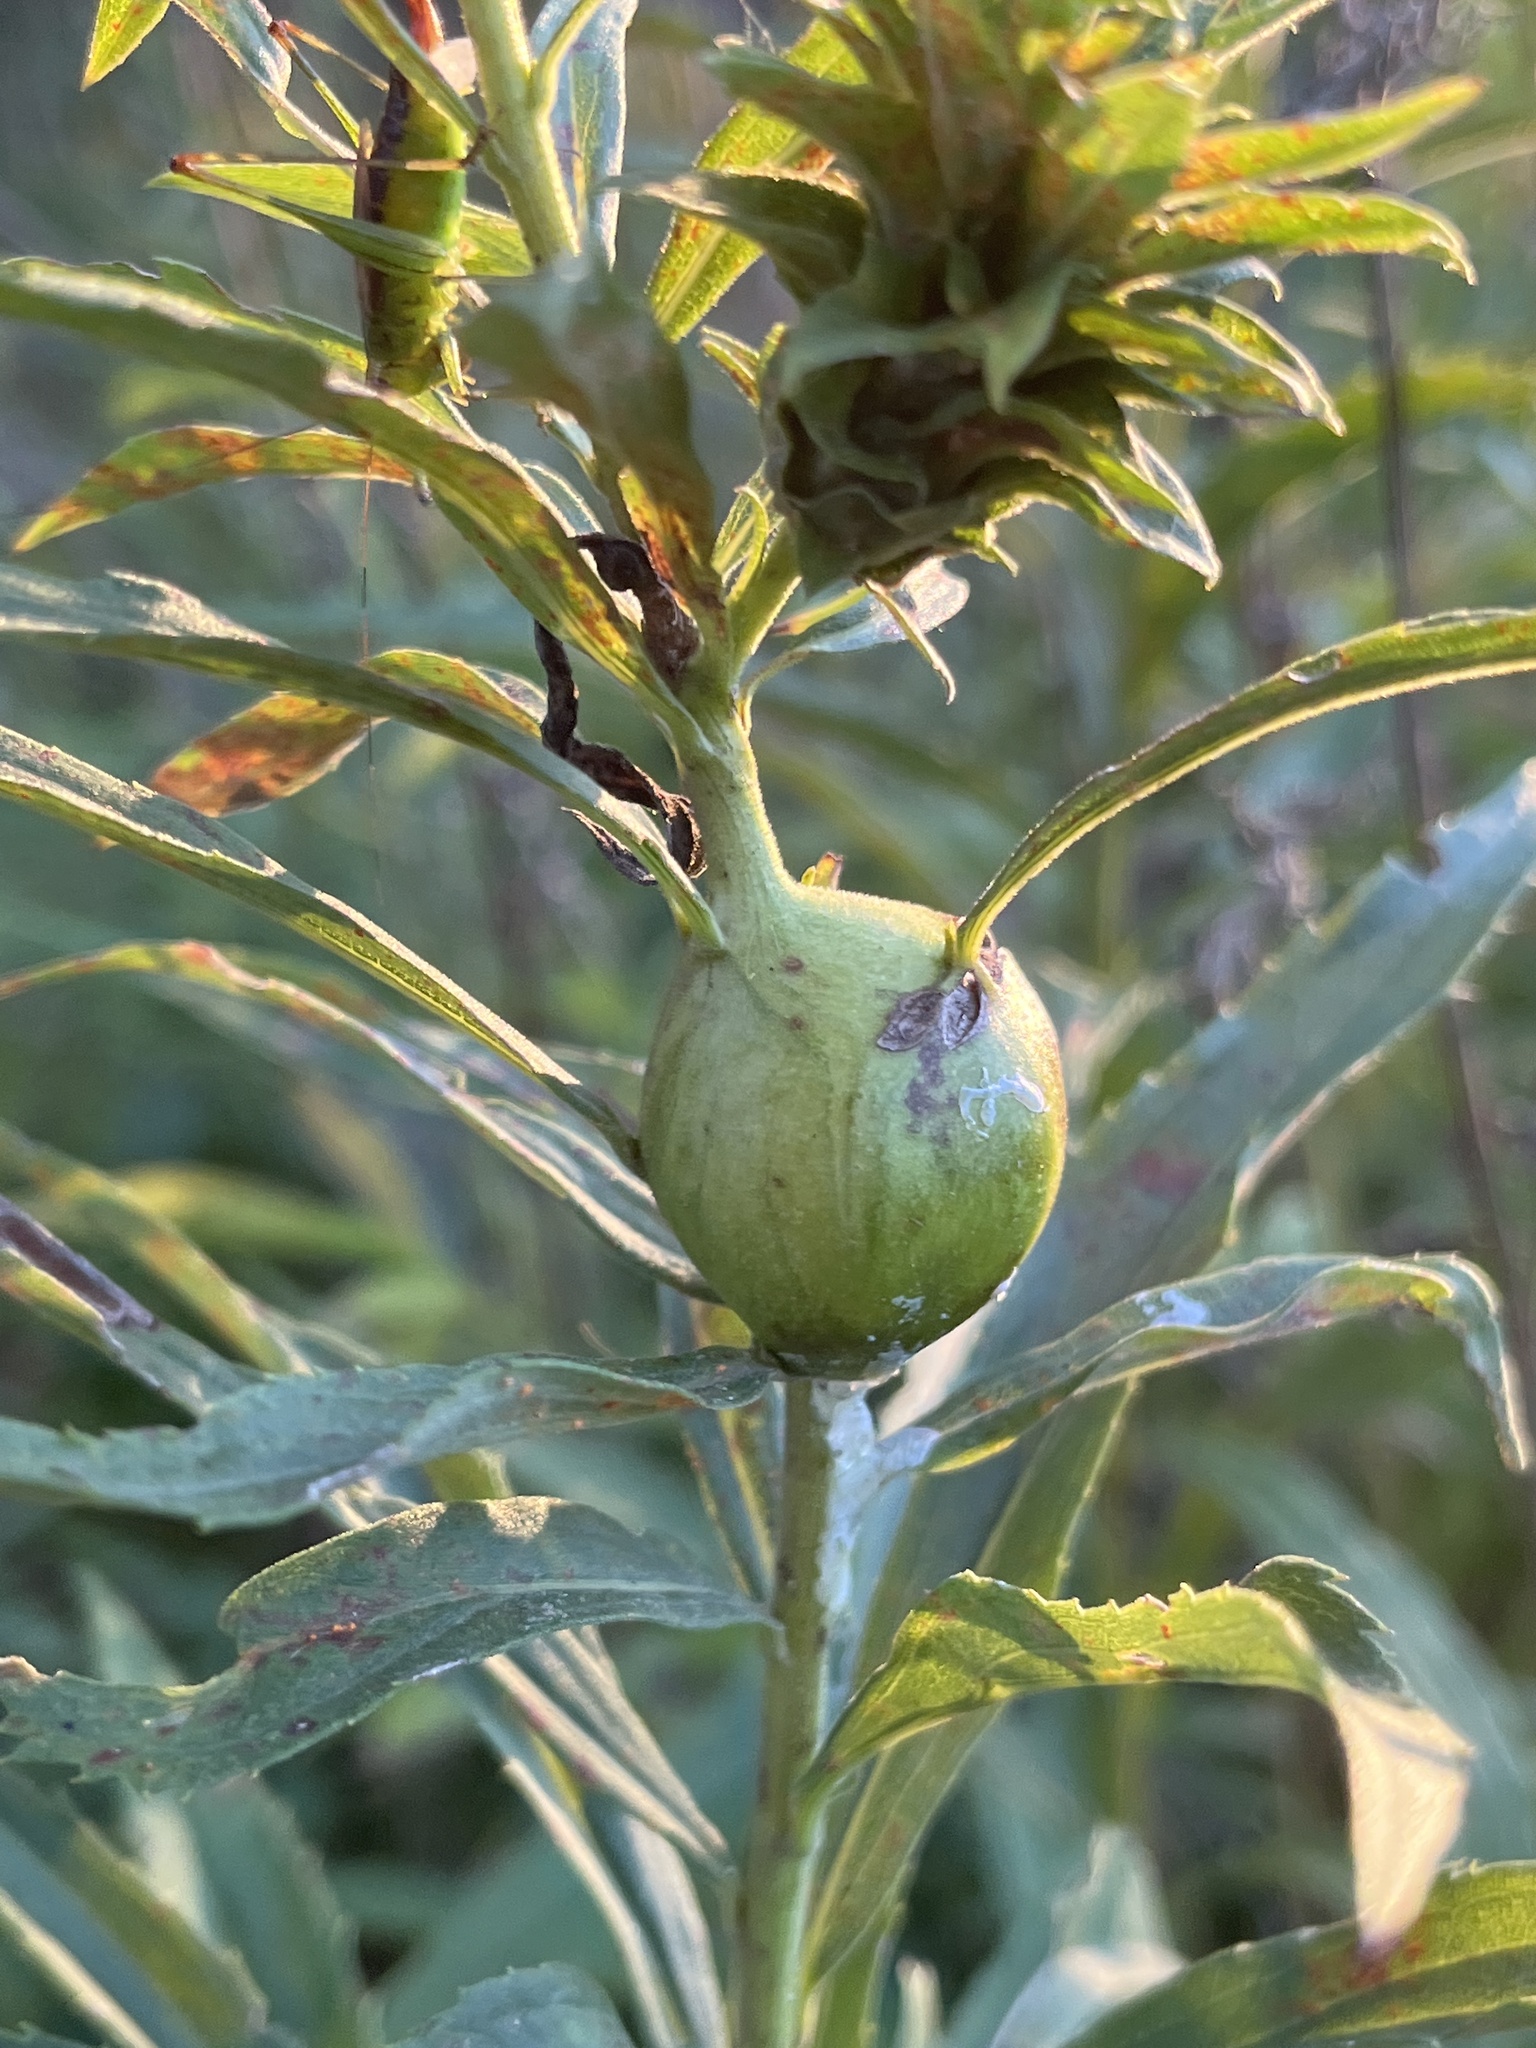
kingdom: Animalia
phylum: Arthropoda
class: Insecta
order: Diptera
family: Tephritidae
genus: Eurosta
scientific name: Eurosta solidaginis
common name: Goldenrod gall fly
